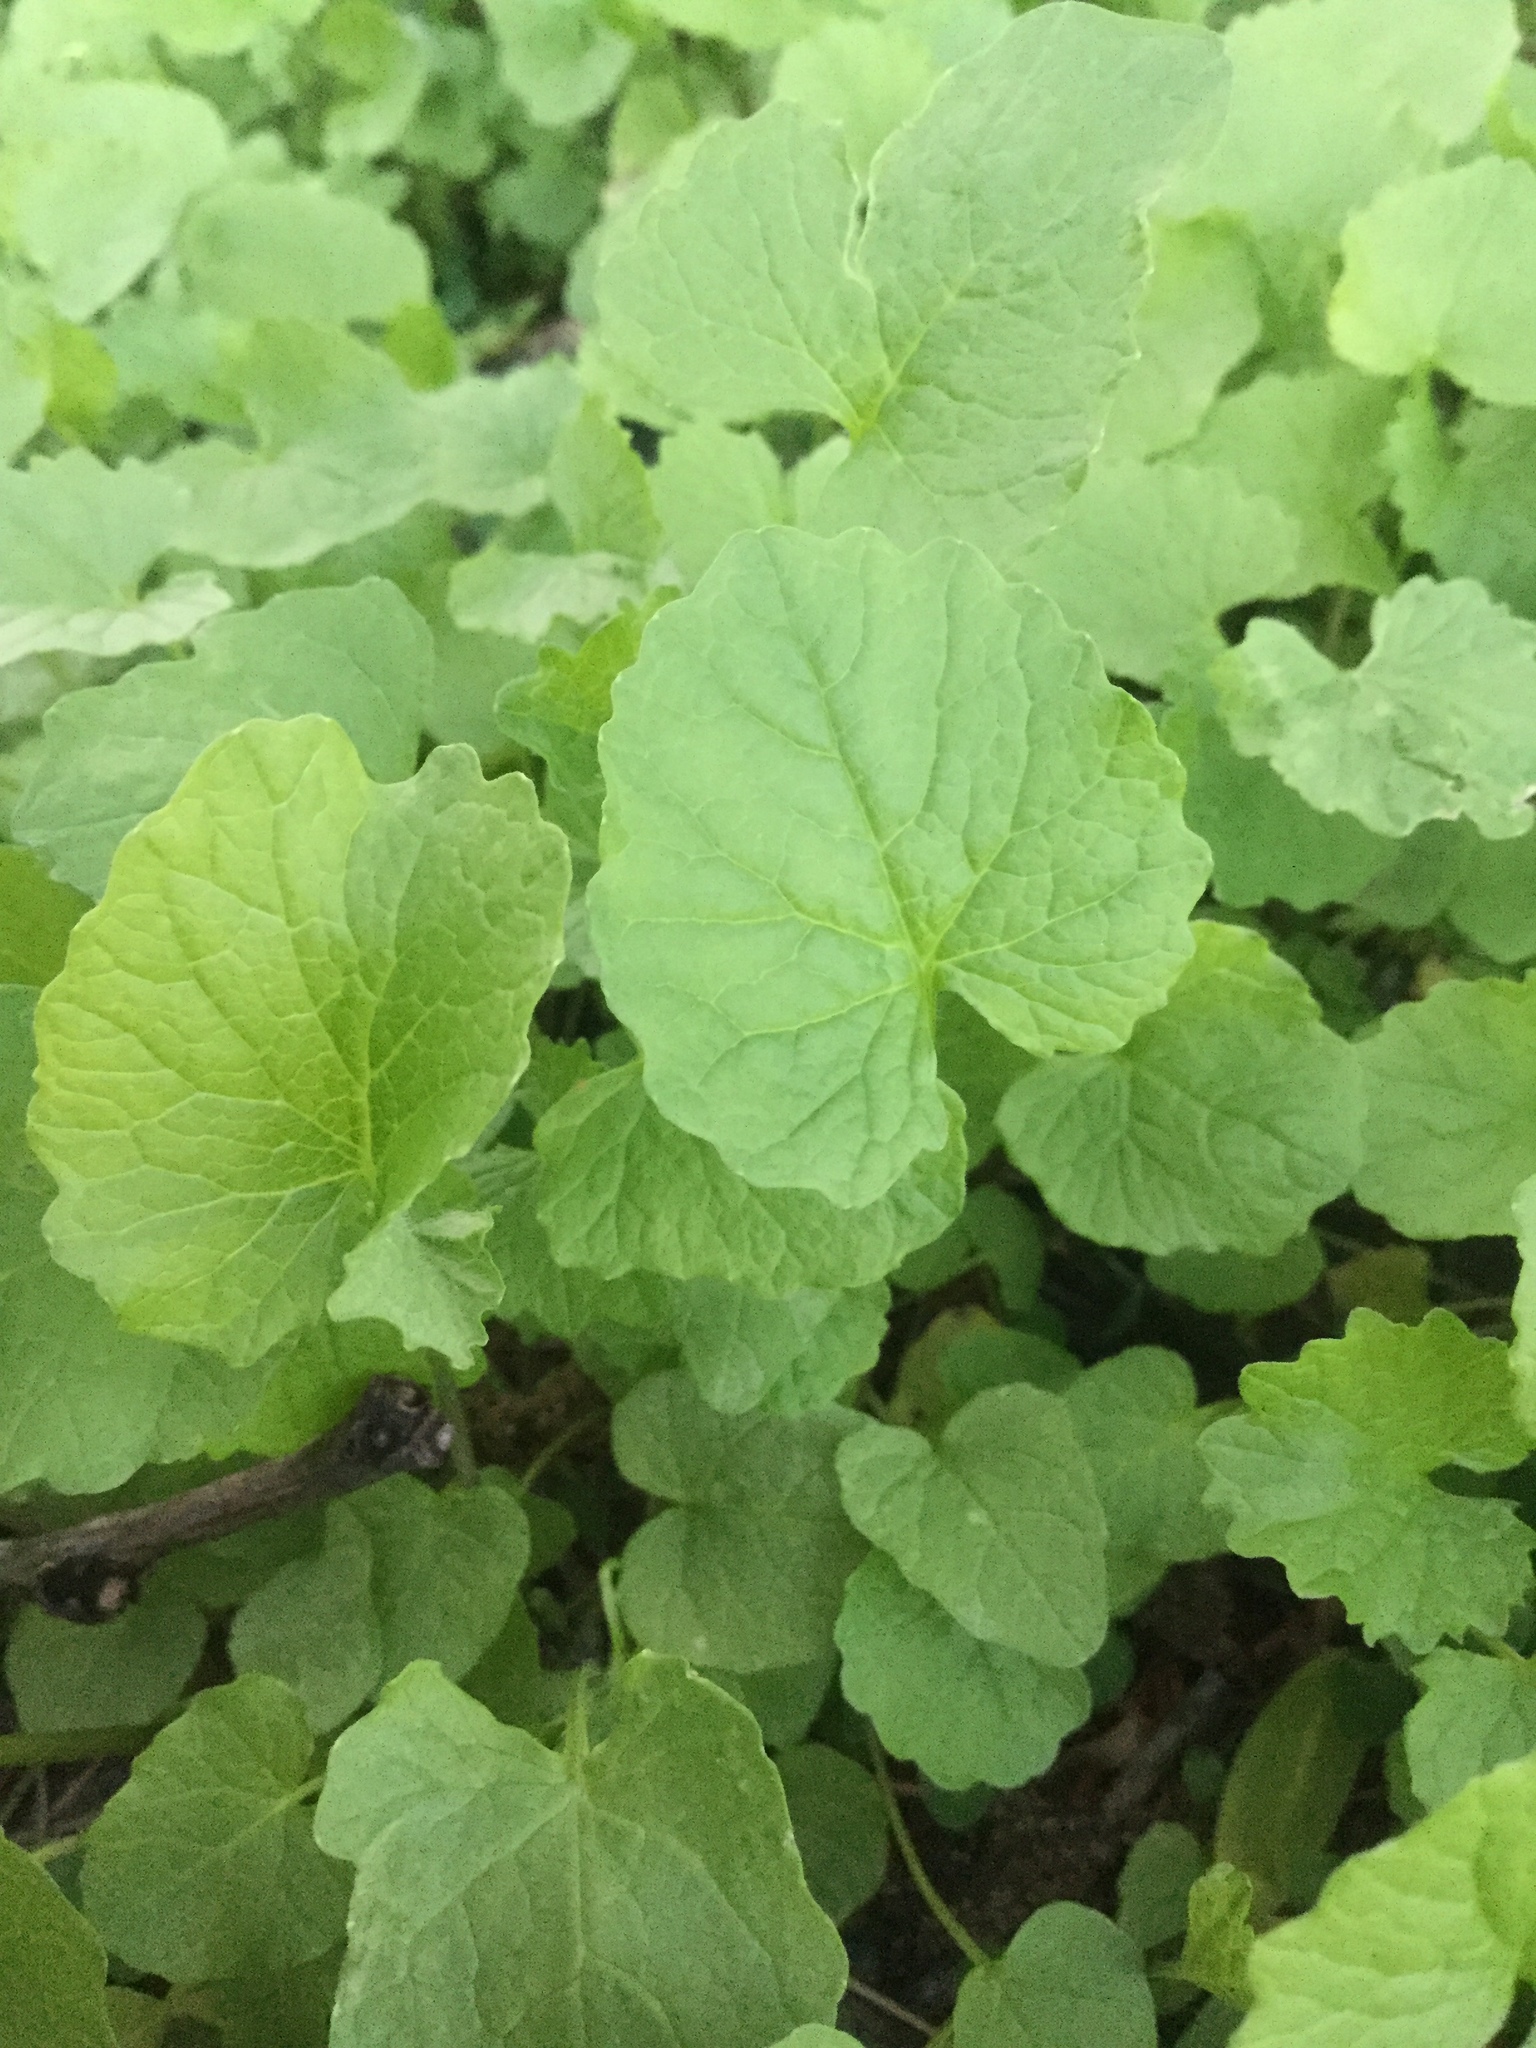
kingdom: Plantae
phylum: Tracheophyta
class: Magnoliopsida
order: Brassicales
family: Brassicaceae
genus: Alliaria
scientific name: Alliaria petiolata
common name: Garlic mustard
